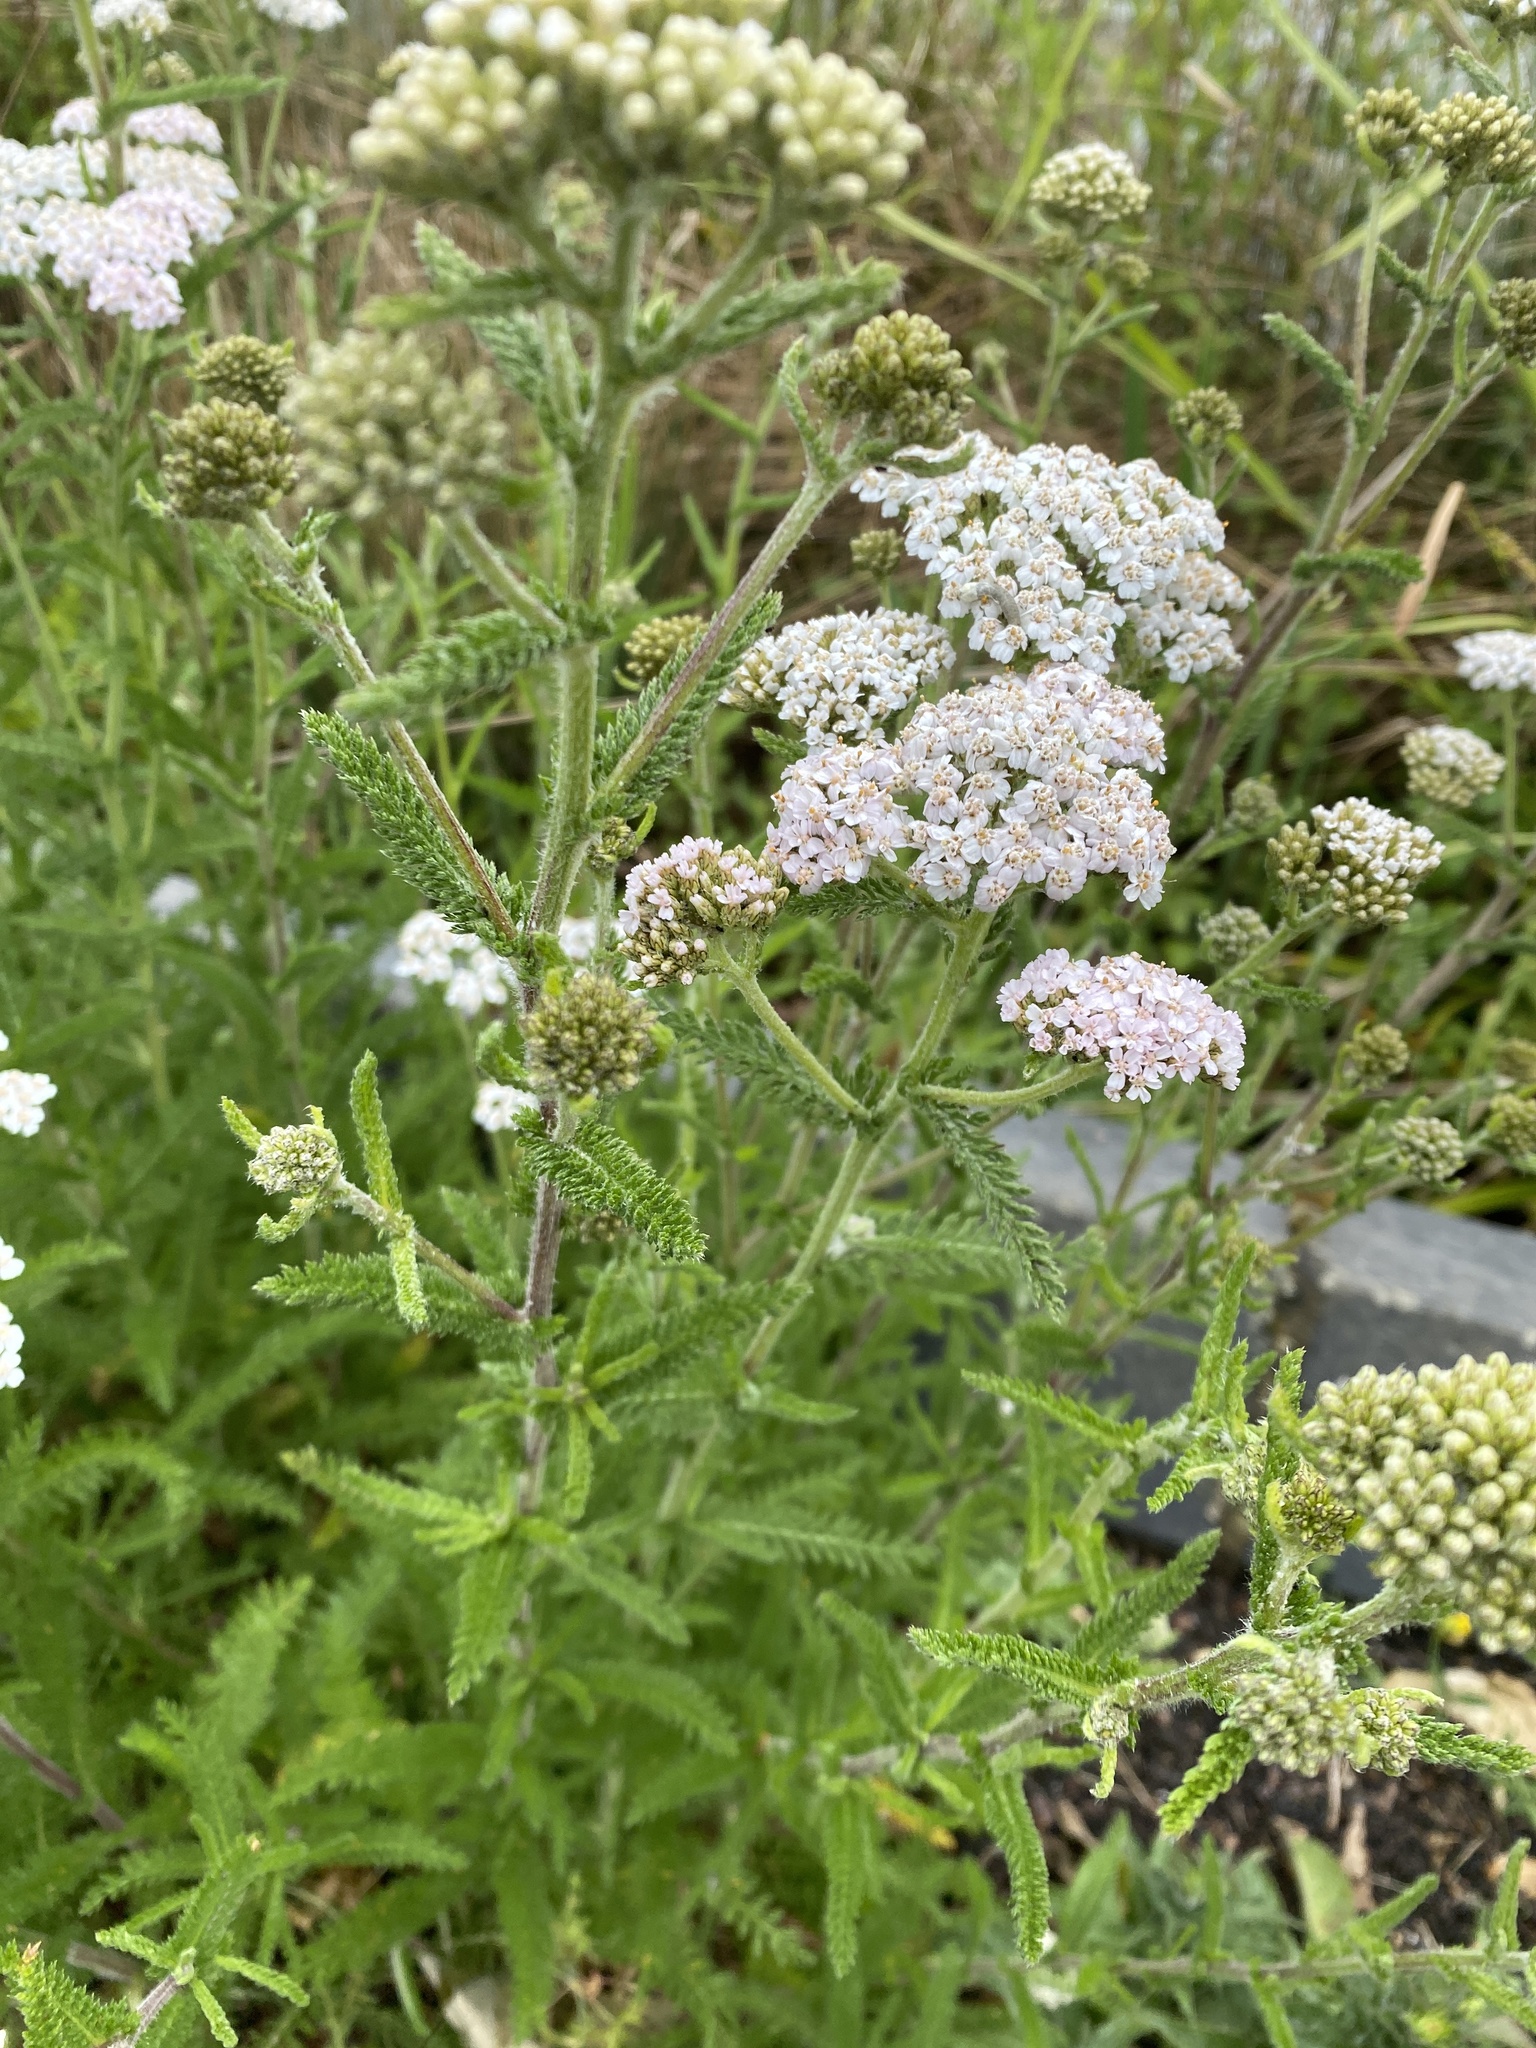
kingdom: Plantae
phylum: Tracheophyta
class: Magnoliopsida
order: Asterales
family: Asteraceae
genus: Achillea
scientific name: Achillea millefolium
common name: Yarrow
